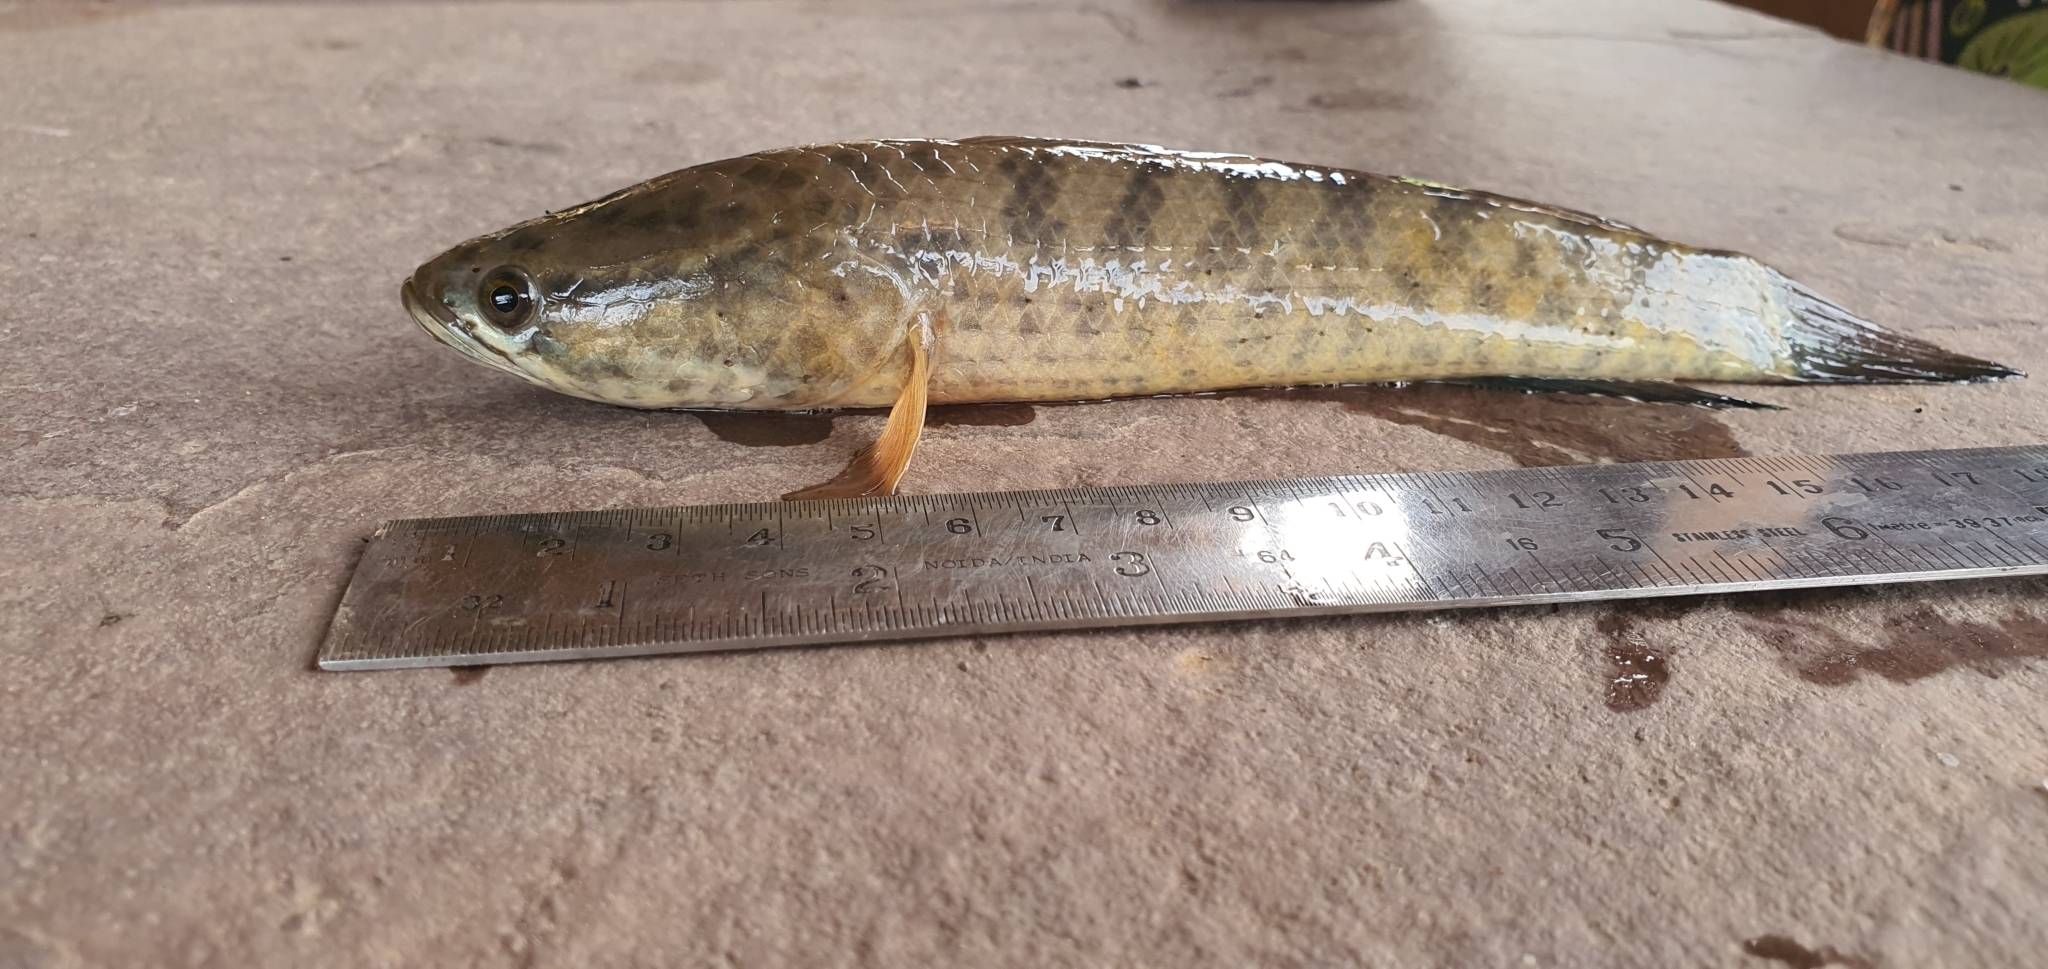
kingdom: Animalia
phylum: Chordata
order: Perciformes
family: Channidae
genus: Channa
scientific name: Channa punctata
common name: Spotted snakehead
